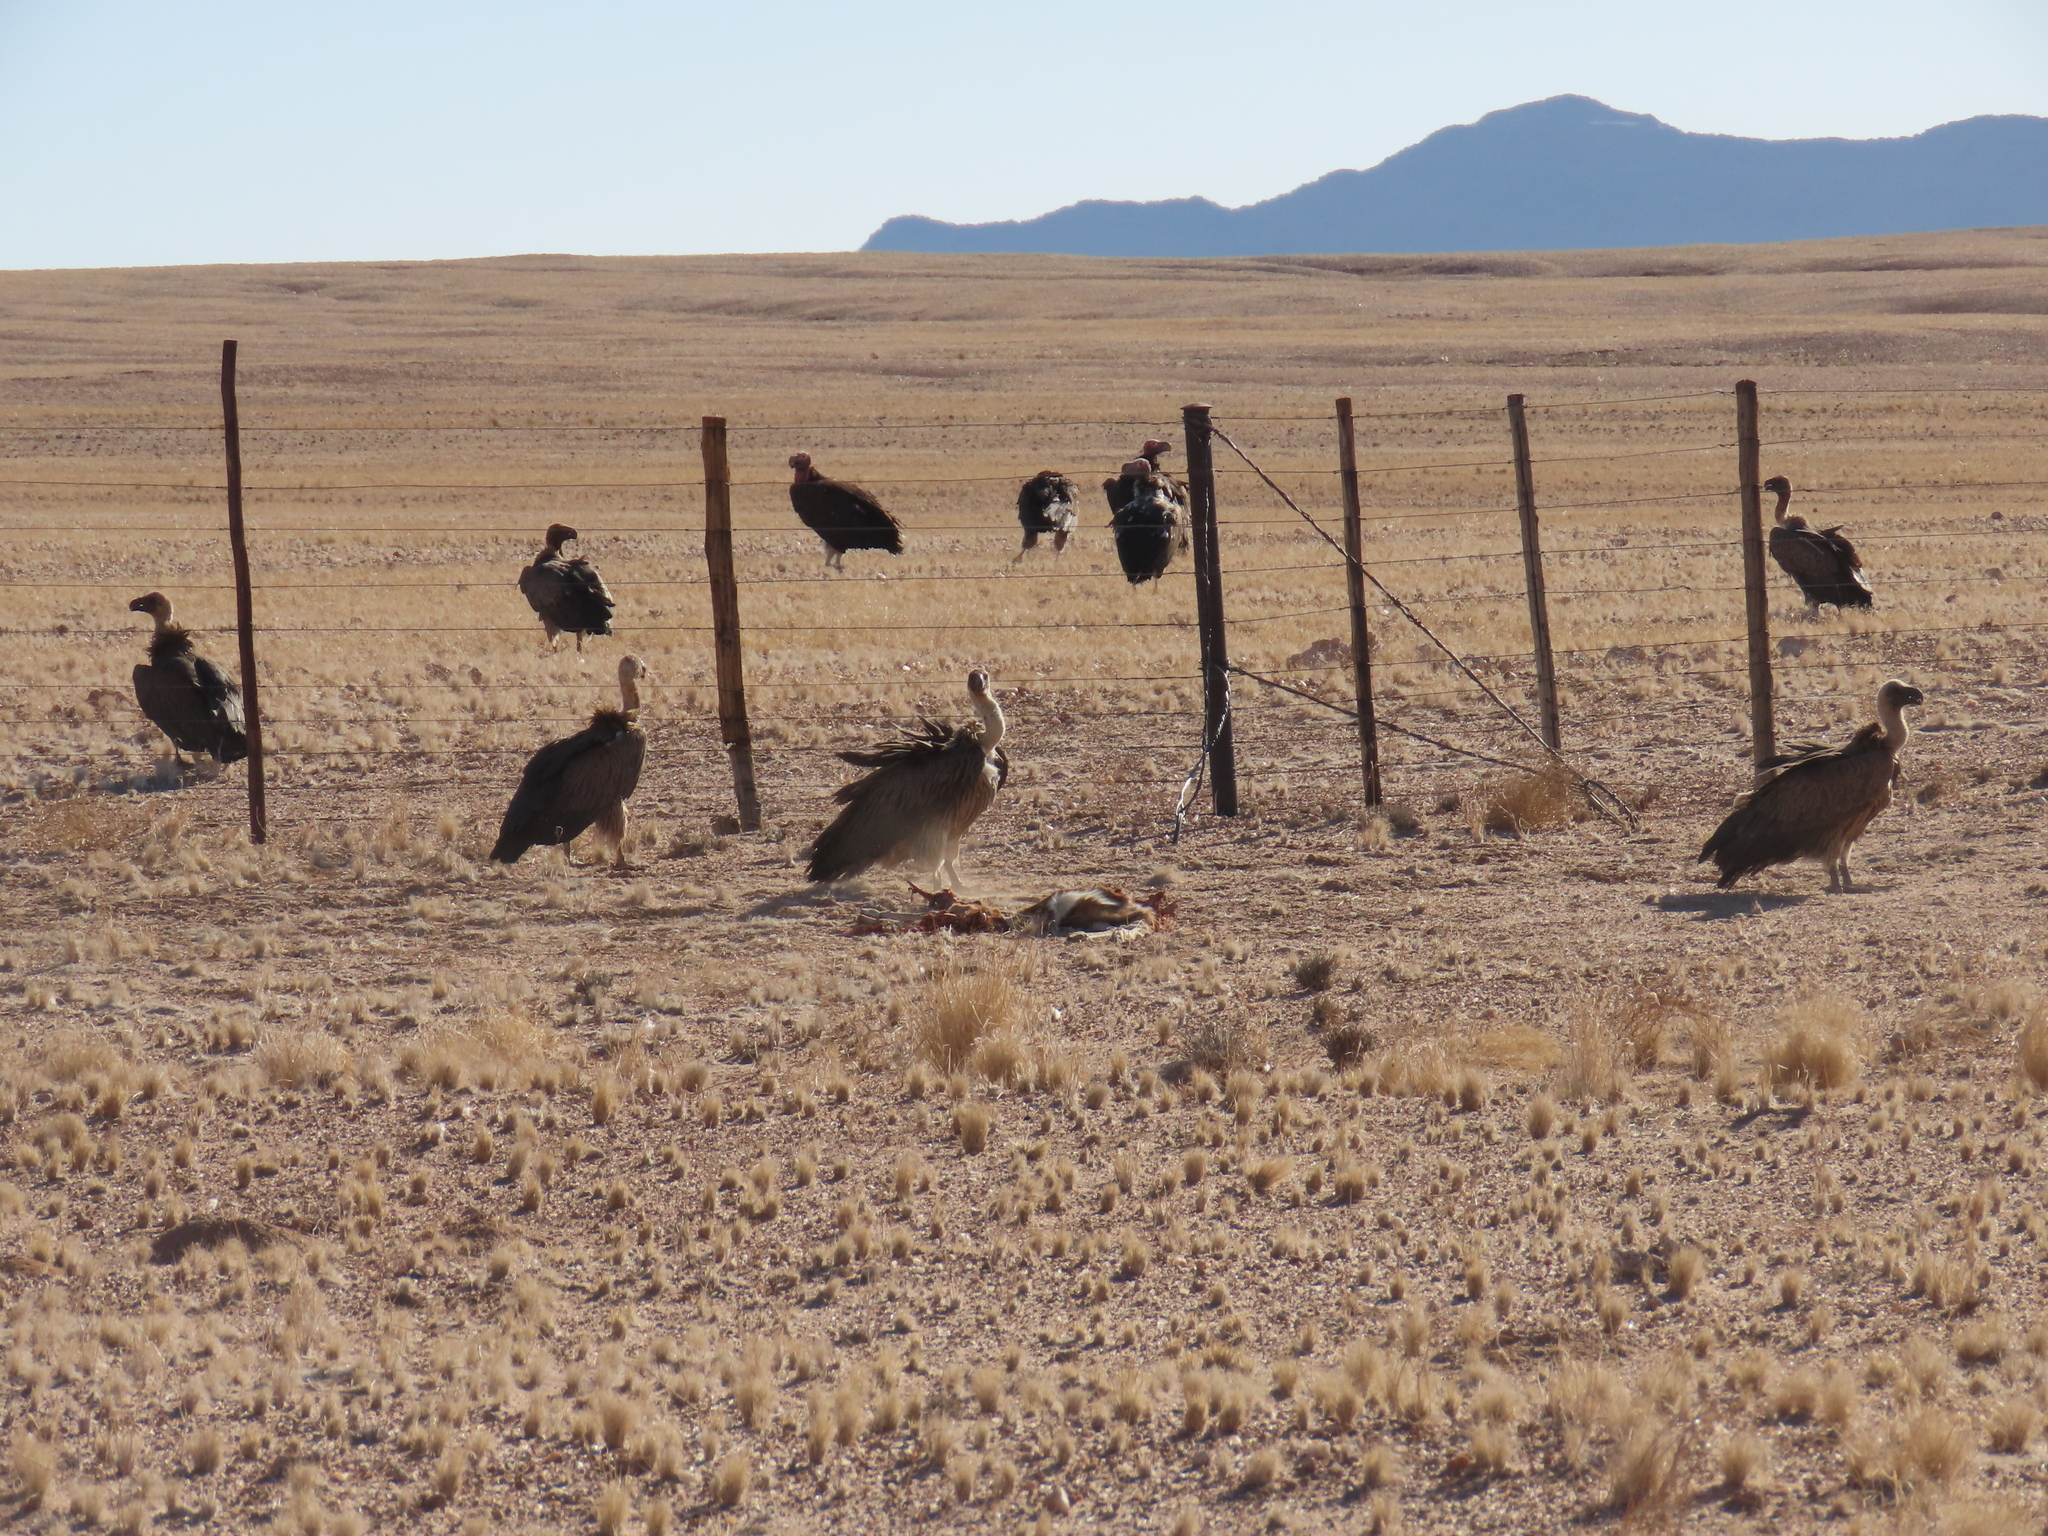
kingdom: Animalia
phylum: Chordata
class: Aves
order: Accipitriformes
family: Accipitridae
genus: Gyps
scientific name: Gyps africanus
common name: White-backed vulture
